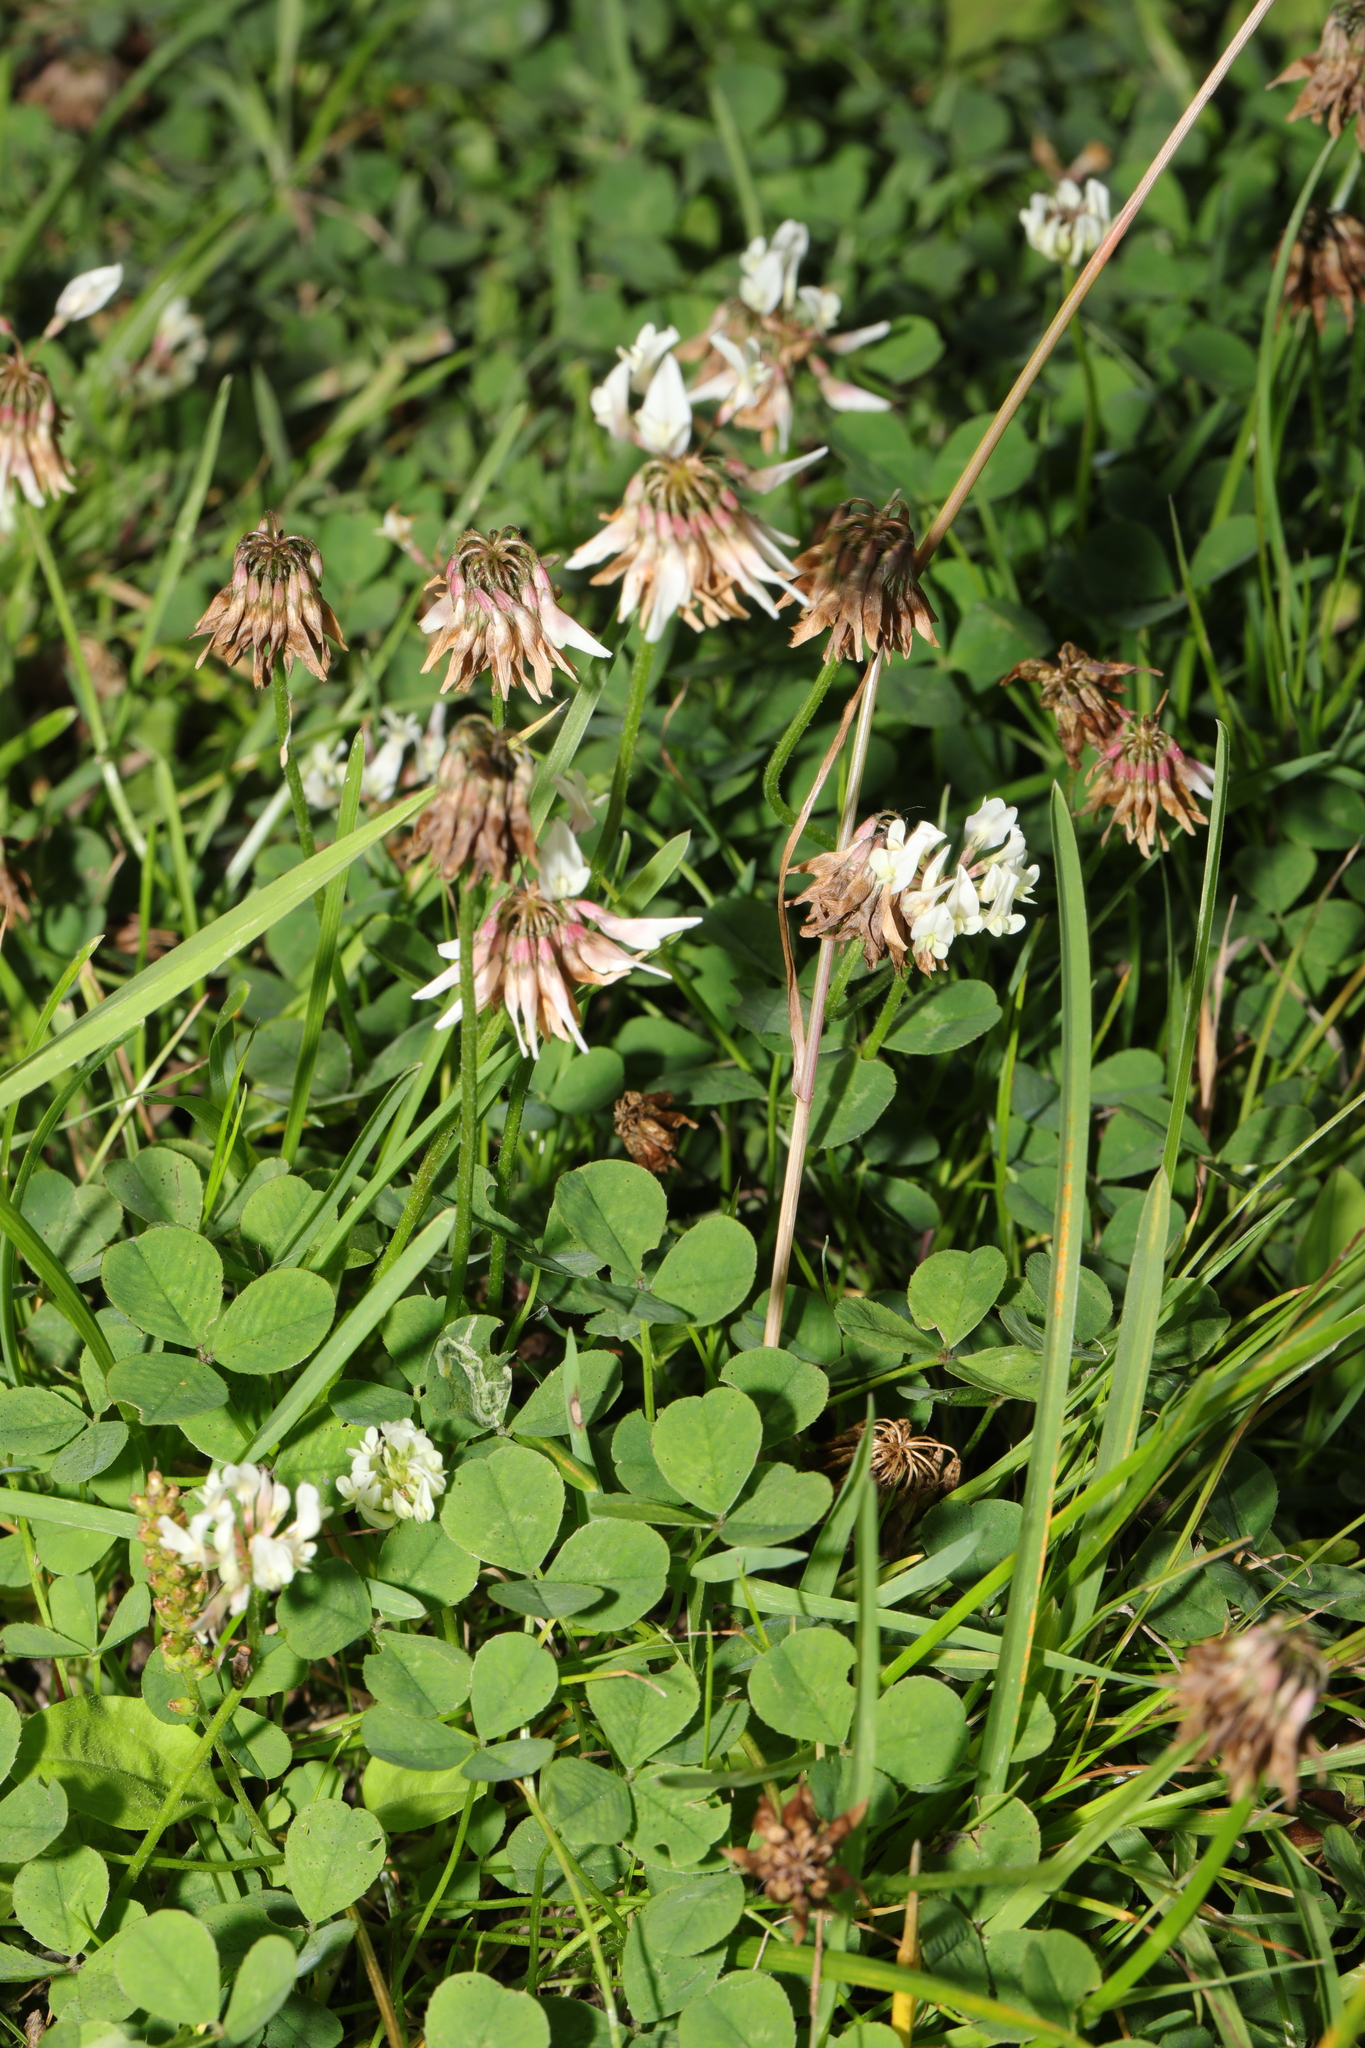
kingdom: Plantae
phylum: Tracheophyta
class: Magnoliopsida
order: Fabales
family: Fabaceae
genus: Trifolium
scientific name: Trifolium repens
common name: White clover
